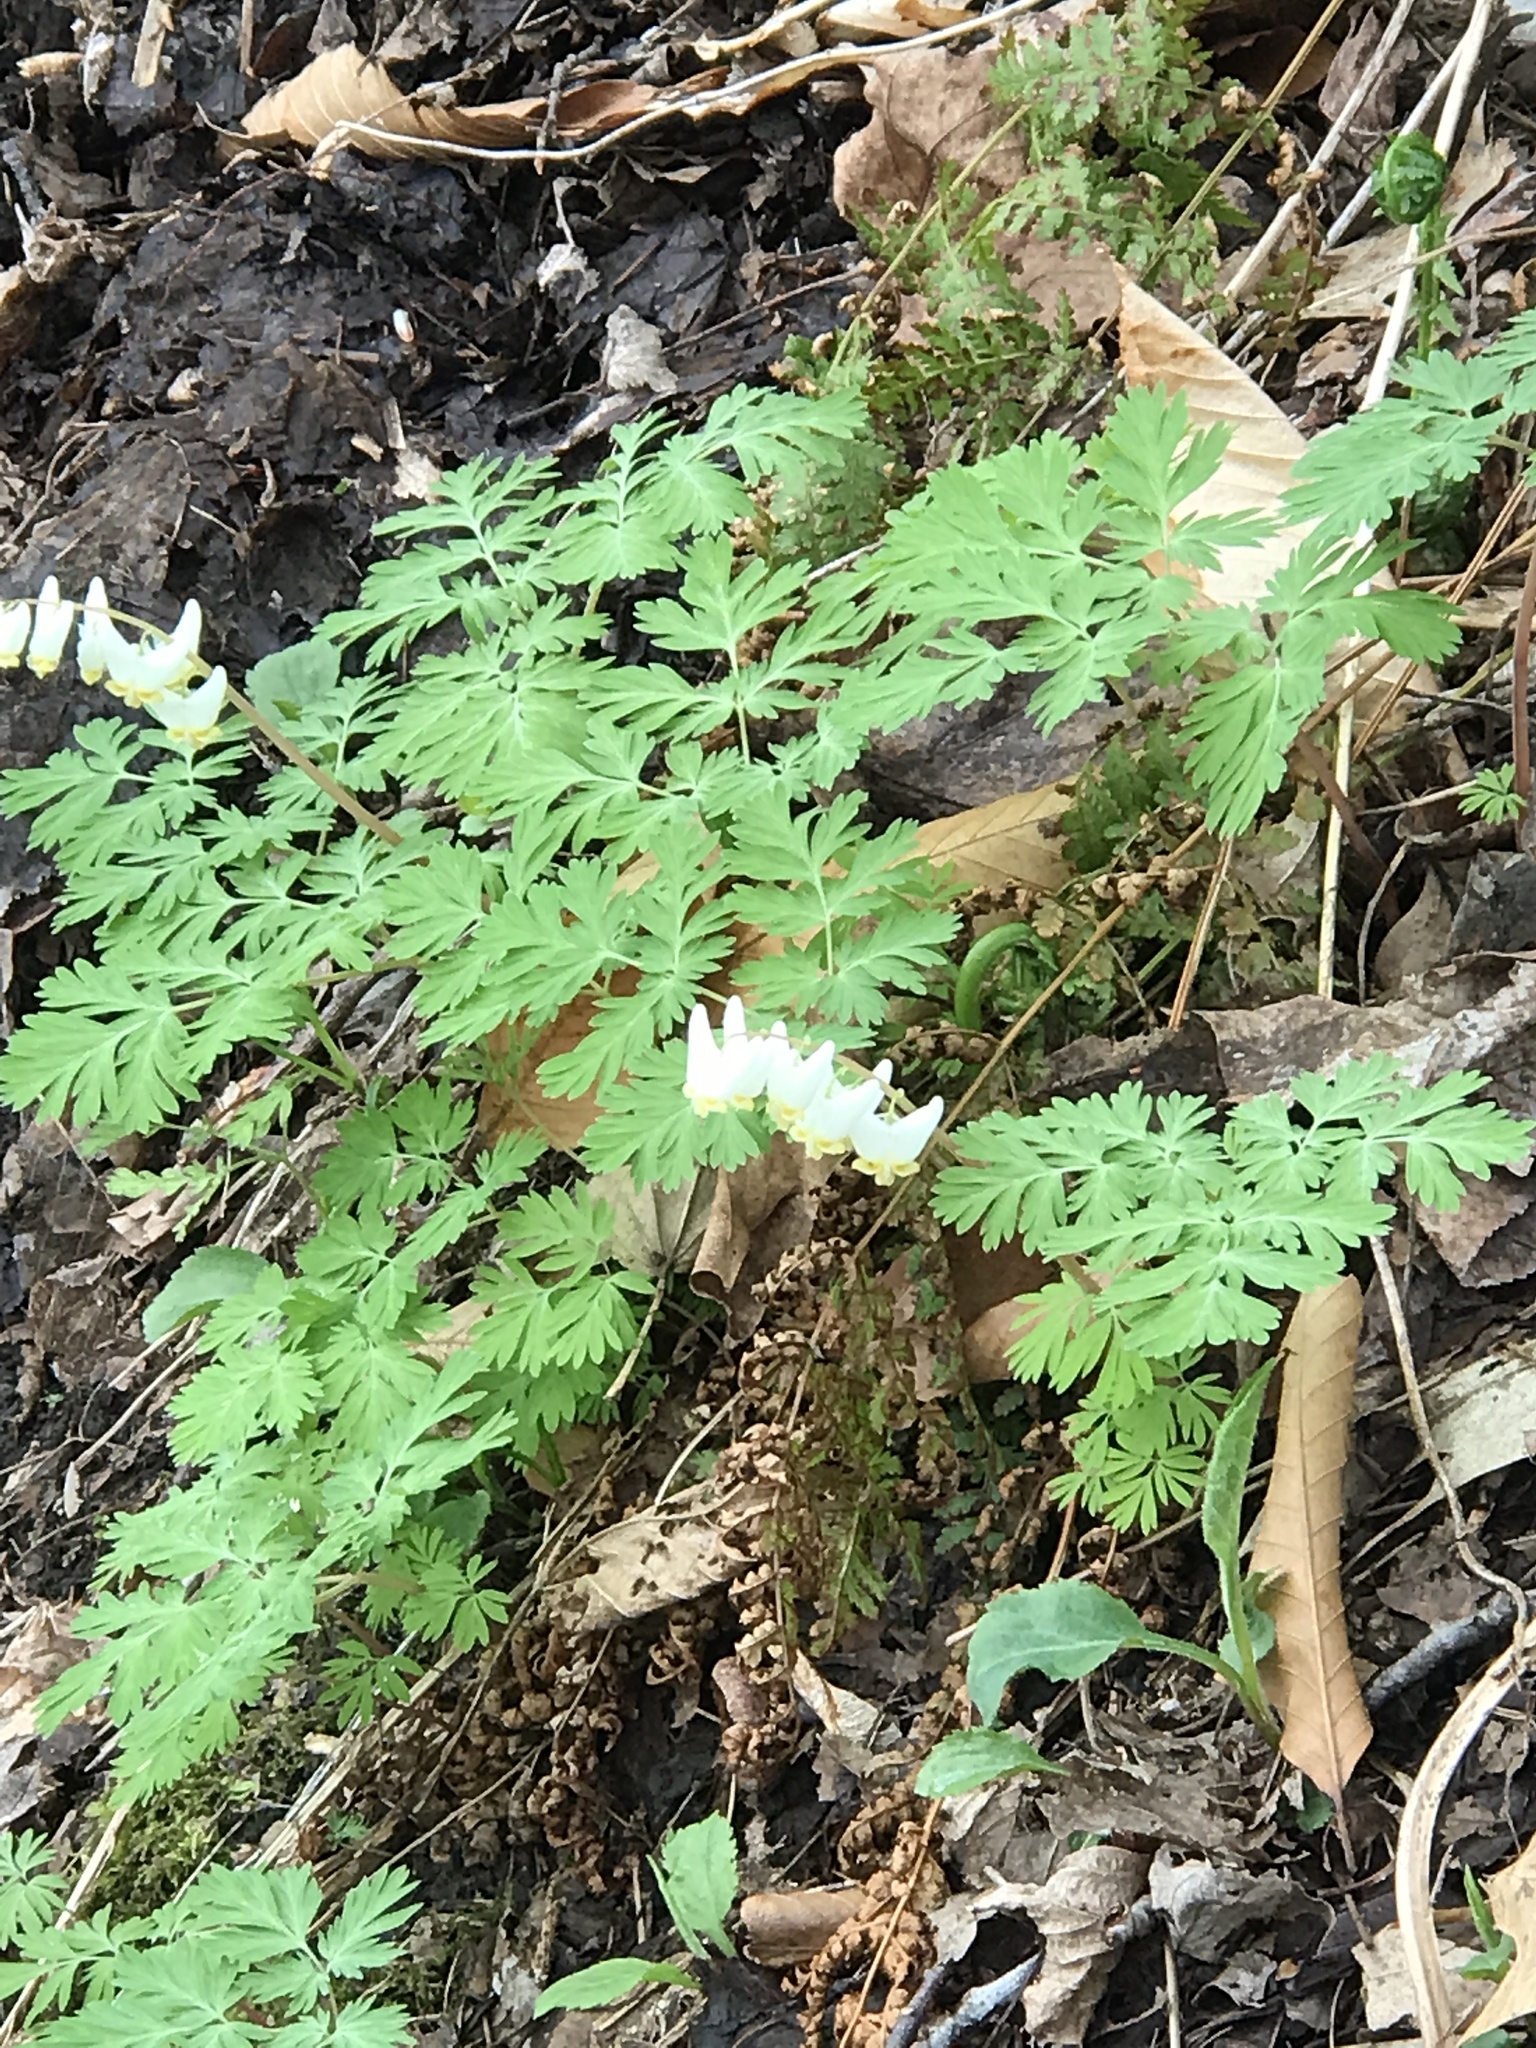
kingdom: Plantae
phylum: Tracheophyta
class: Magnoliopsida
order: Ranunculales
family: Papaveraceae
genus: Dicentra
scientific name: Dicentra cucullaria
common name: Dutchman's breeches
